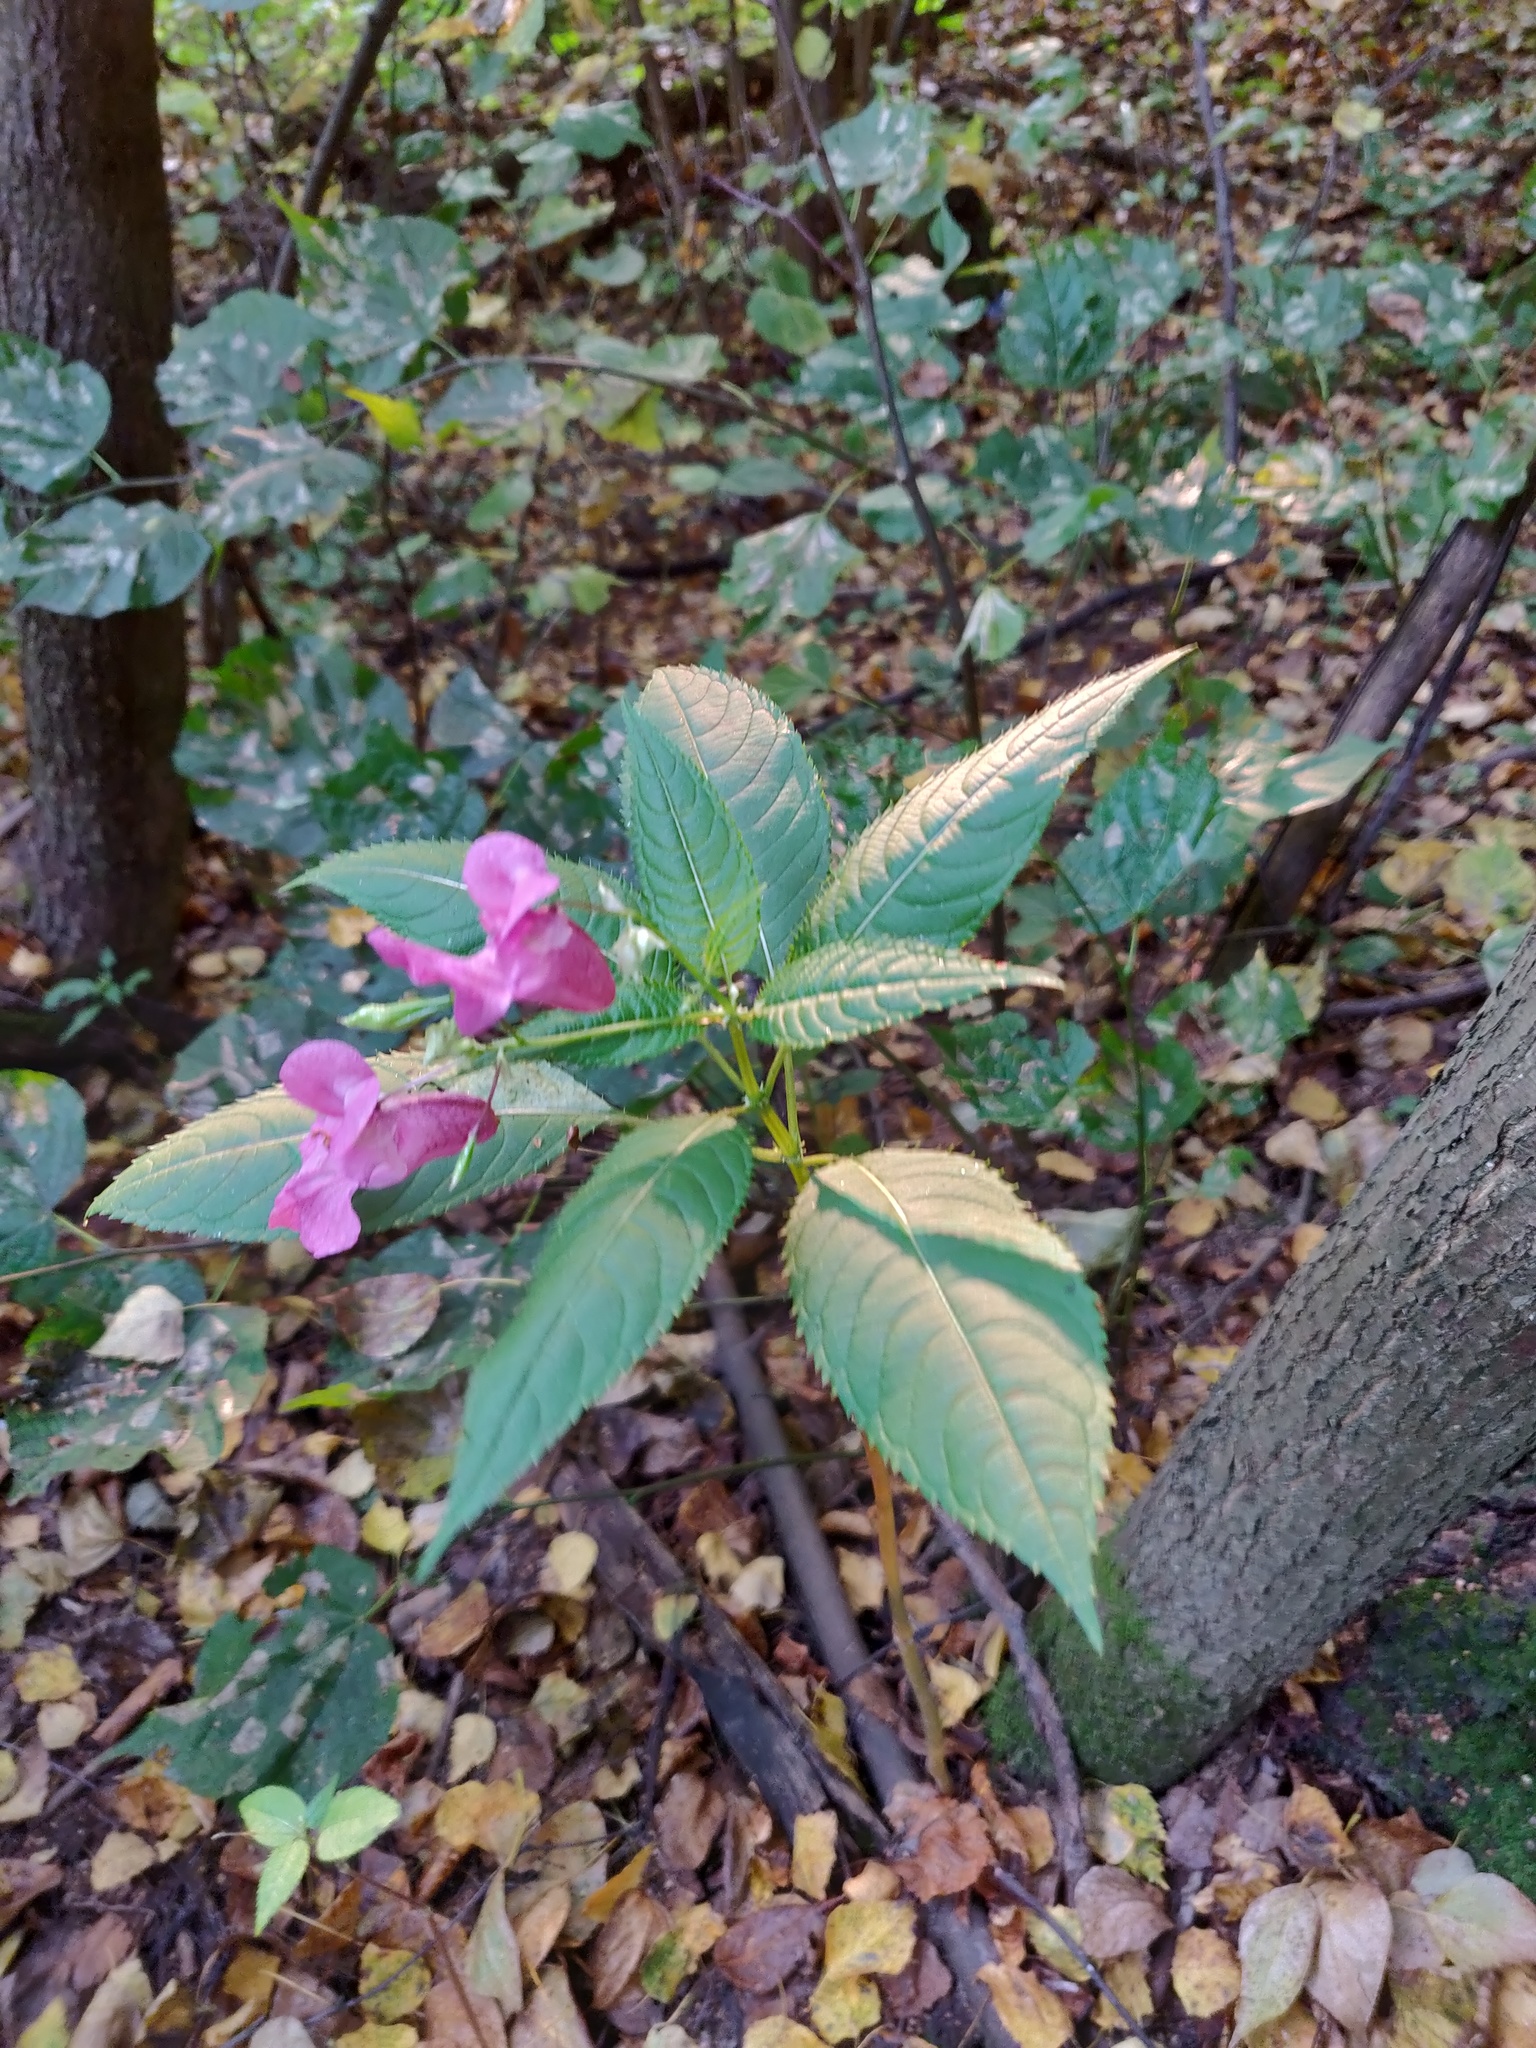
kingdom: Plantae
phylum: Tracheophyta
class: Magnoliopsida
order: Ericales
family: Balsaminaceae
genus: Impatiens
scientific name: Impatiens glandulifera
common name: Himalayan balsam
